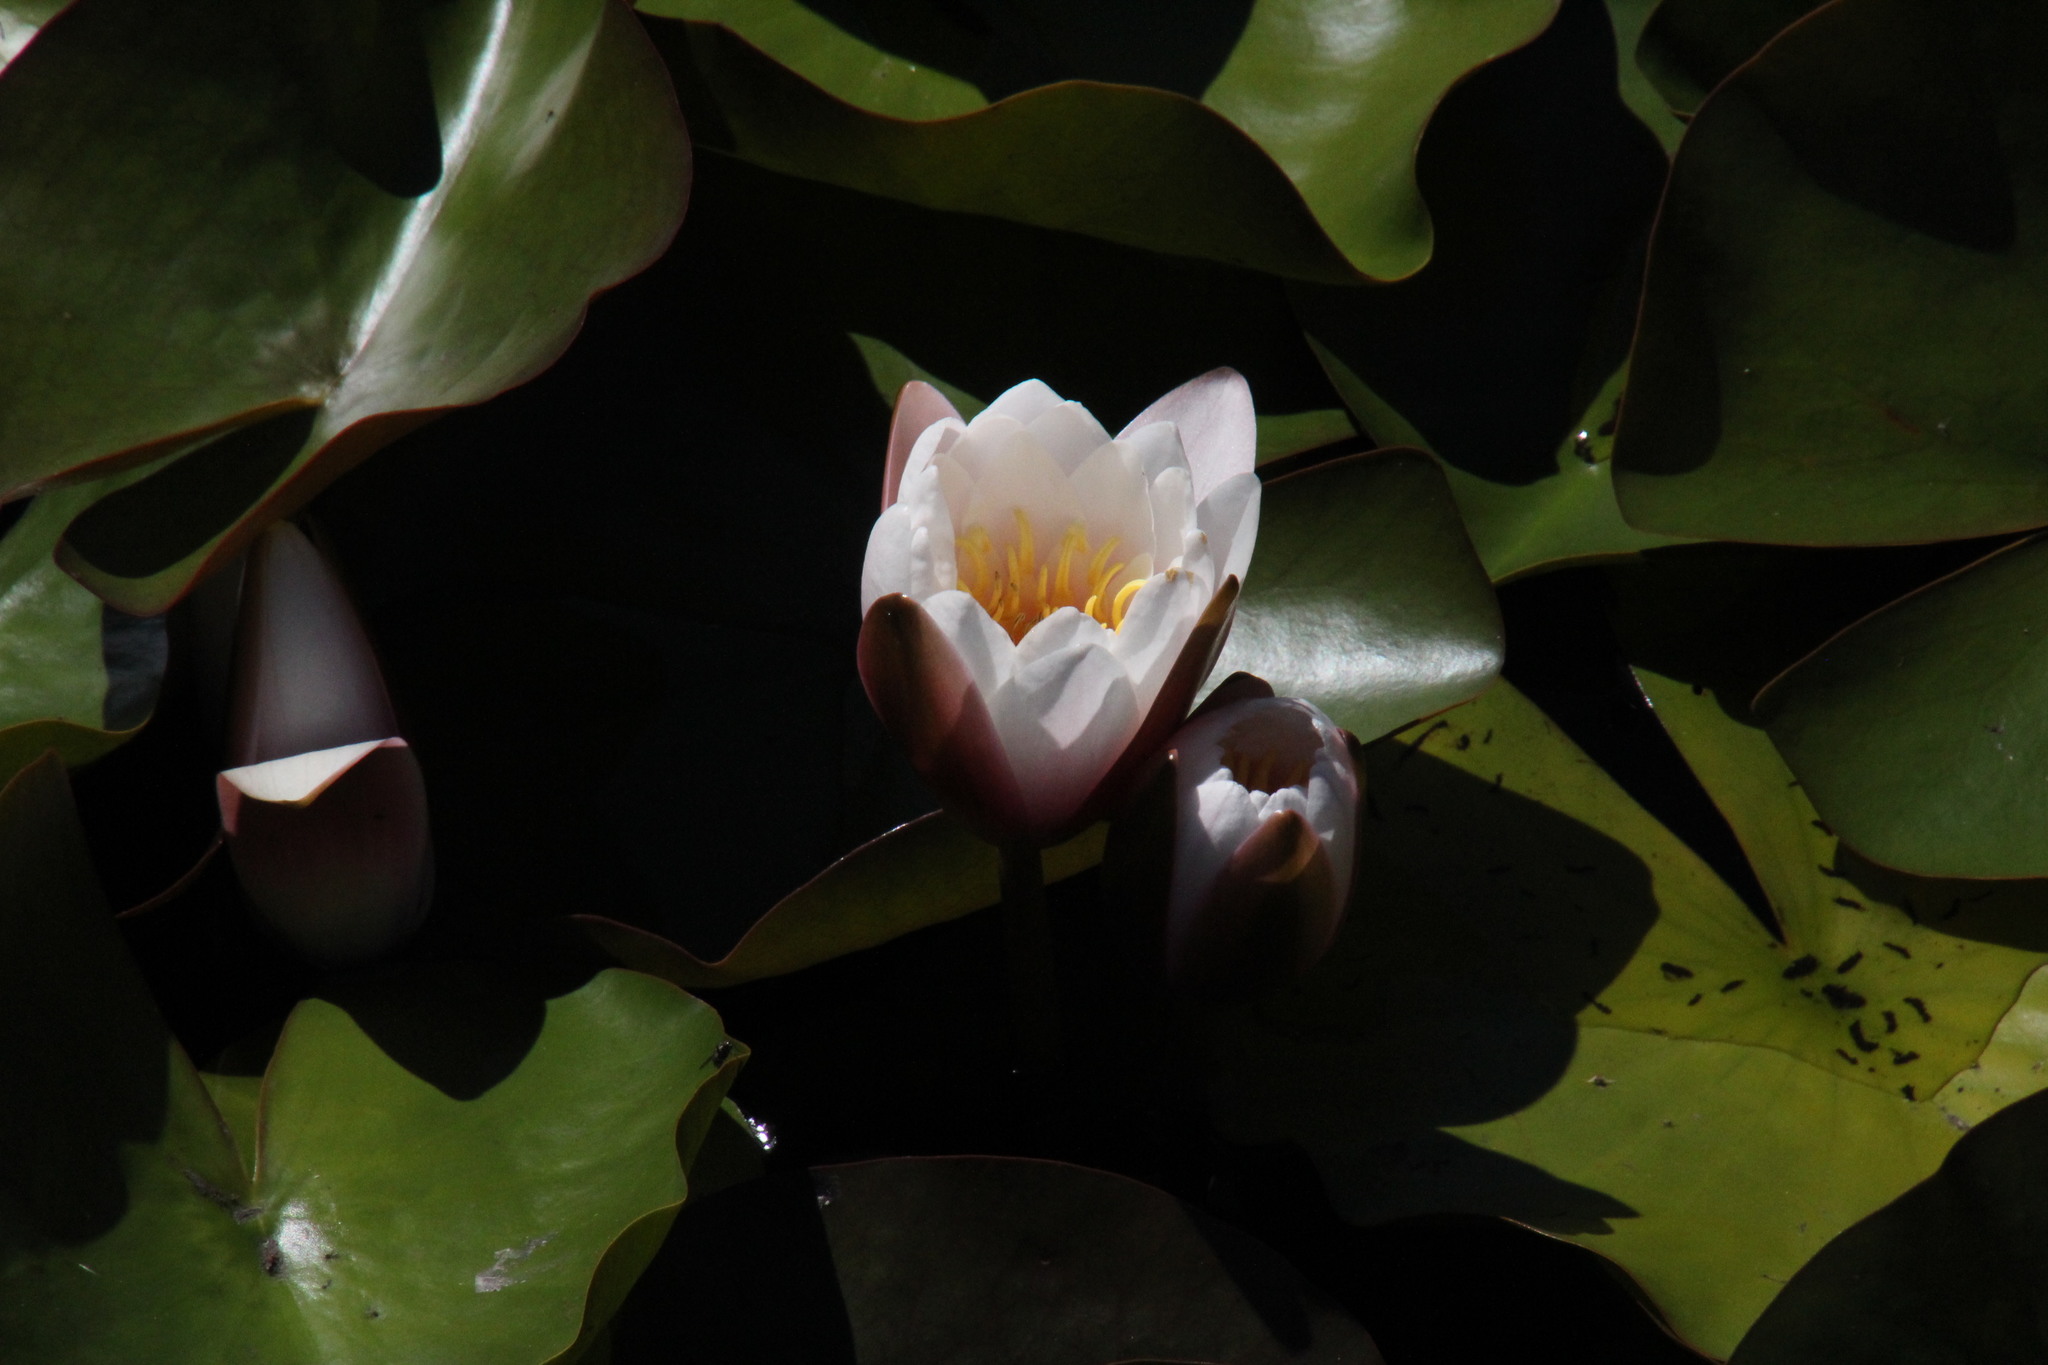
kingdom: Plantae
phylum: Tracheophyta
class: Magnoliopsida
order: Nymphaeales
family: Nymphaeaceae
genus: Nymphaea
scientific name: Nymphaea alba
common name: White water-lily
